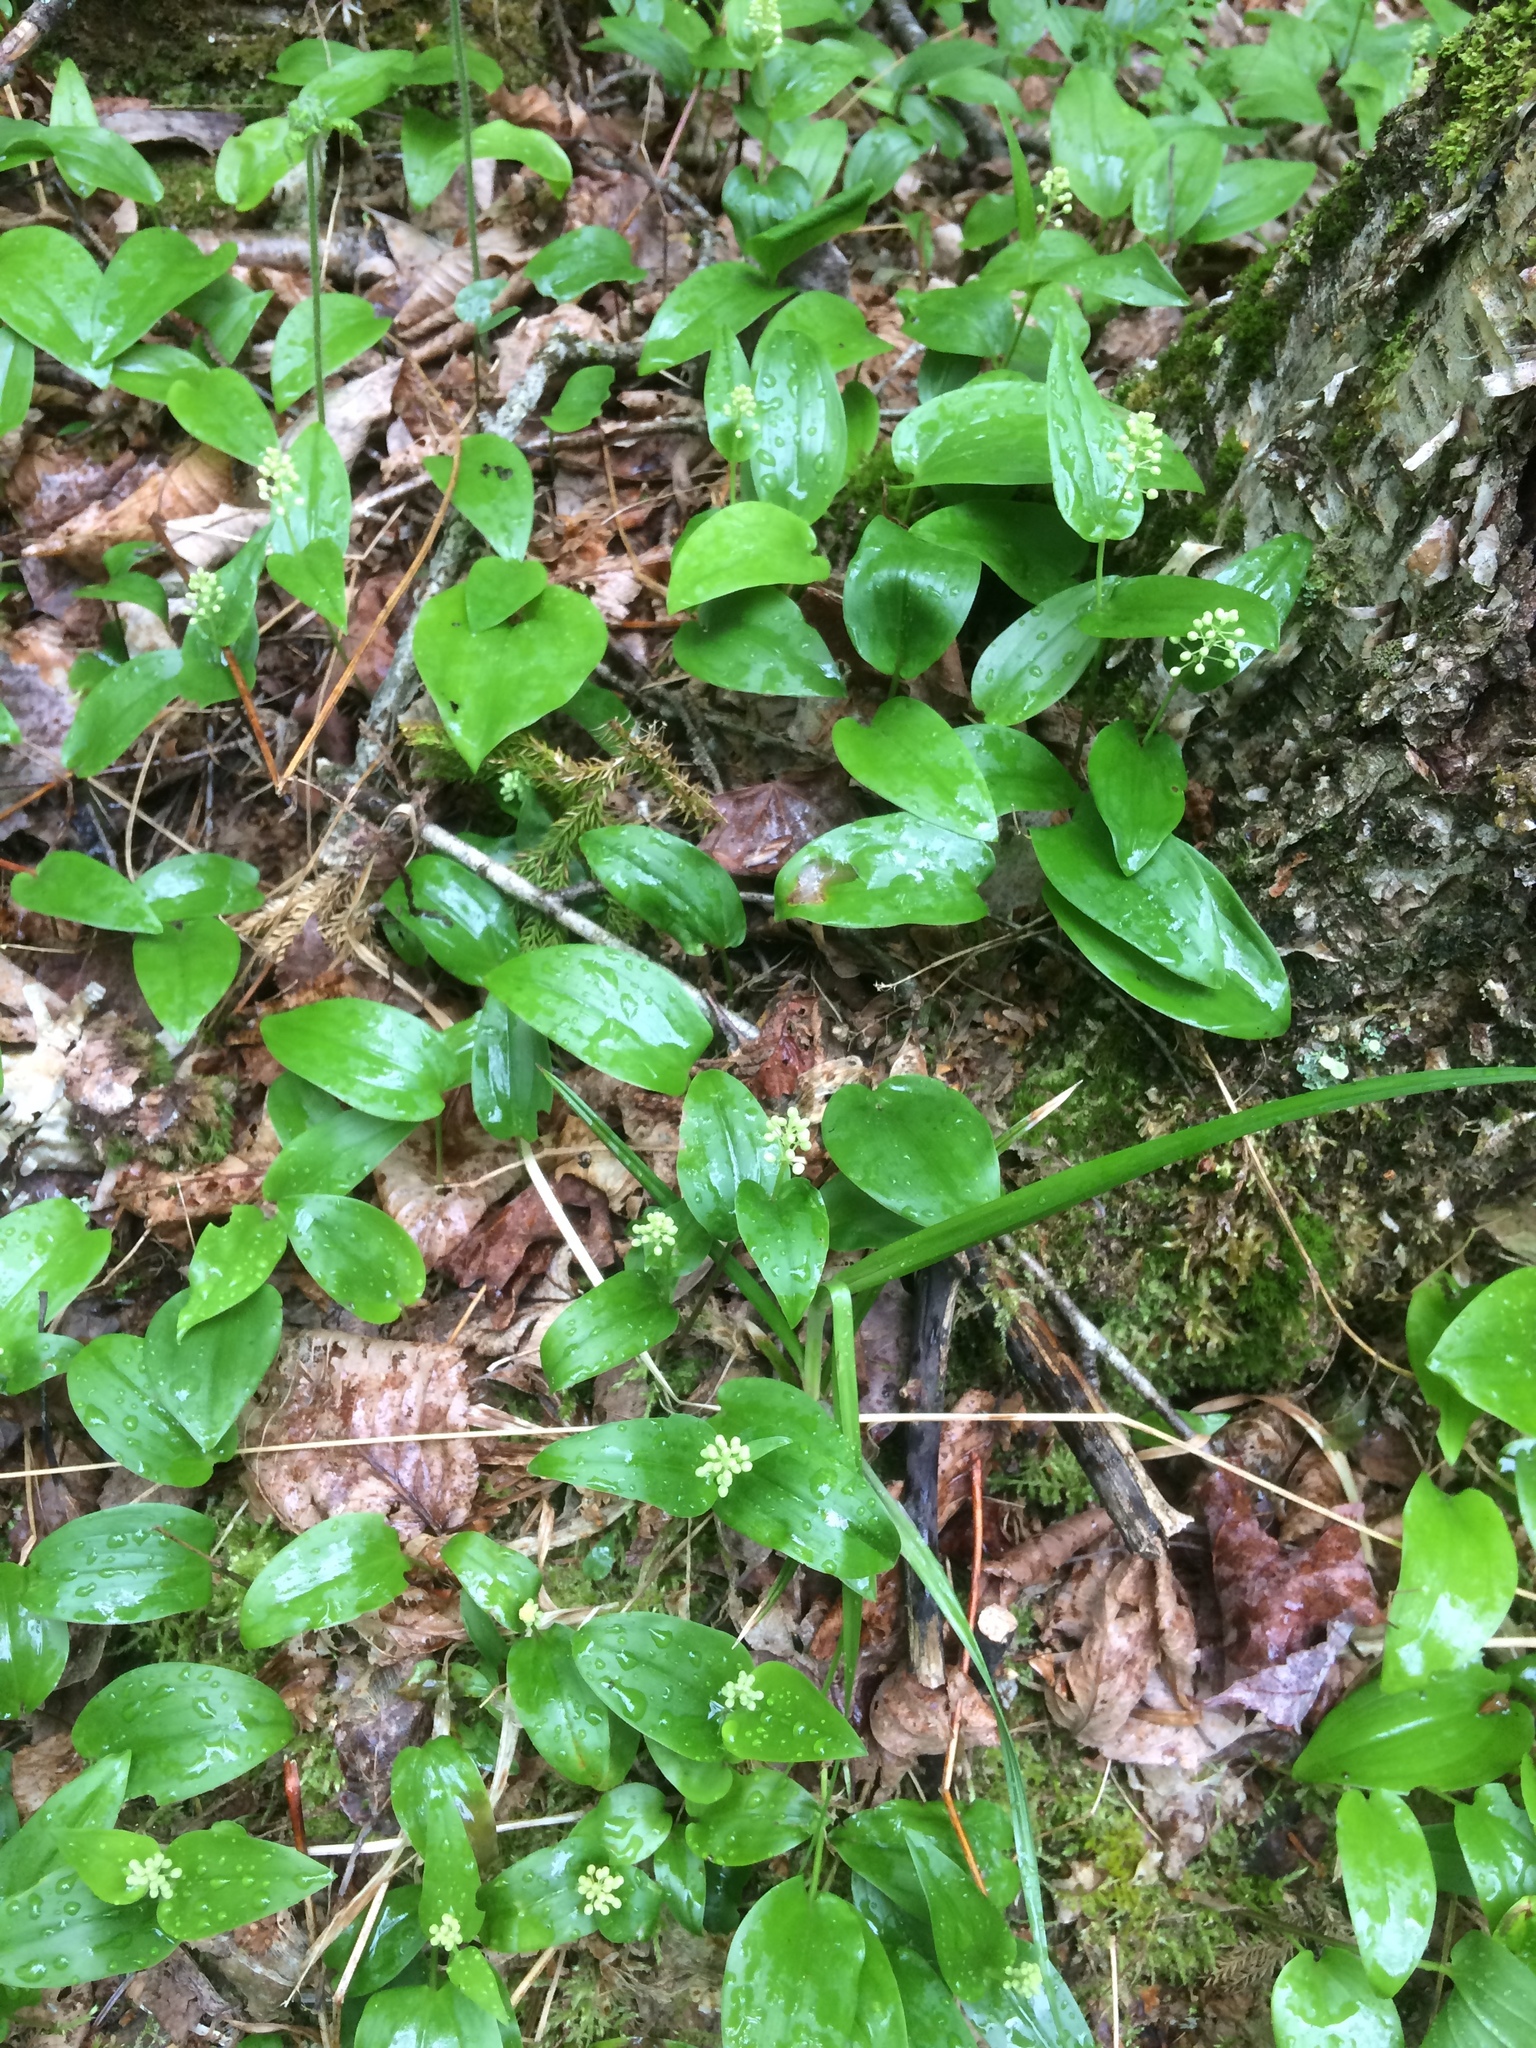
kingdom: Plantae
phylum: Tracheophyta
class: Liliopsida
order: Asparagales
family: Asparagaceae
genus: Maianthemum
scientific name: Maianthemum canadense
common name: False lily-of-the-valley
